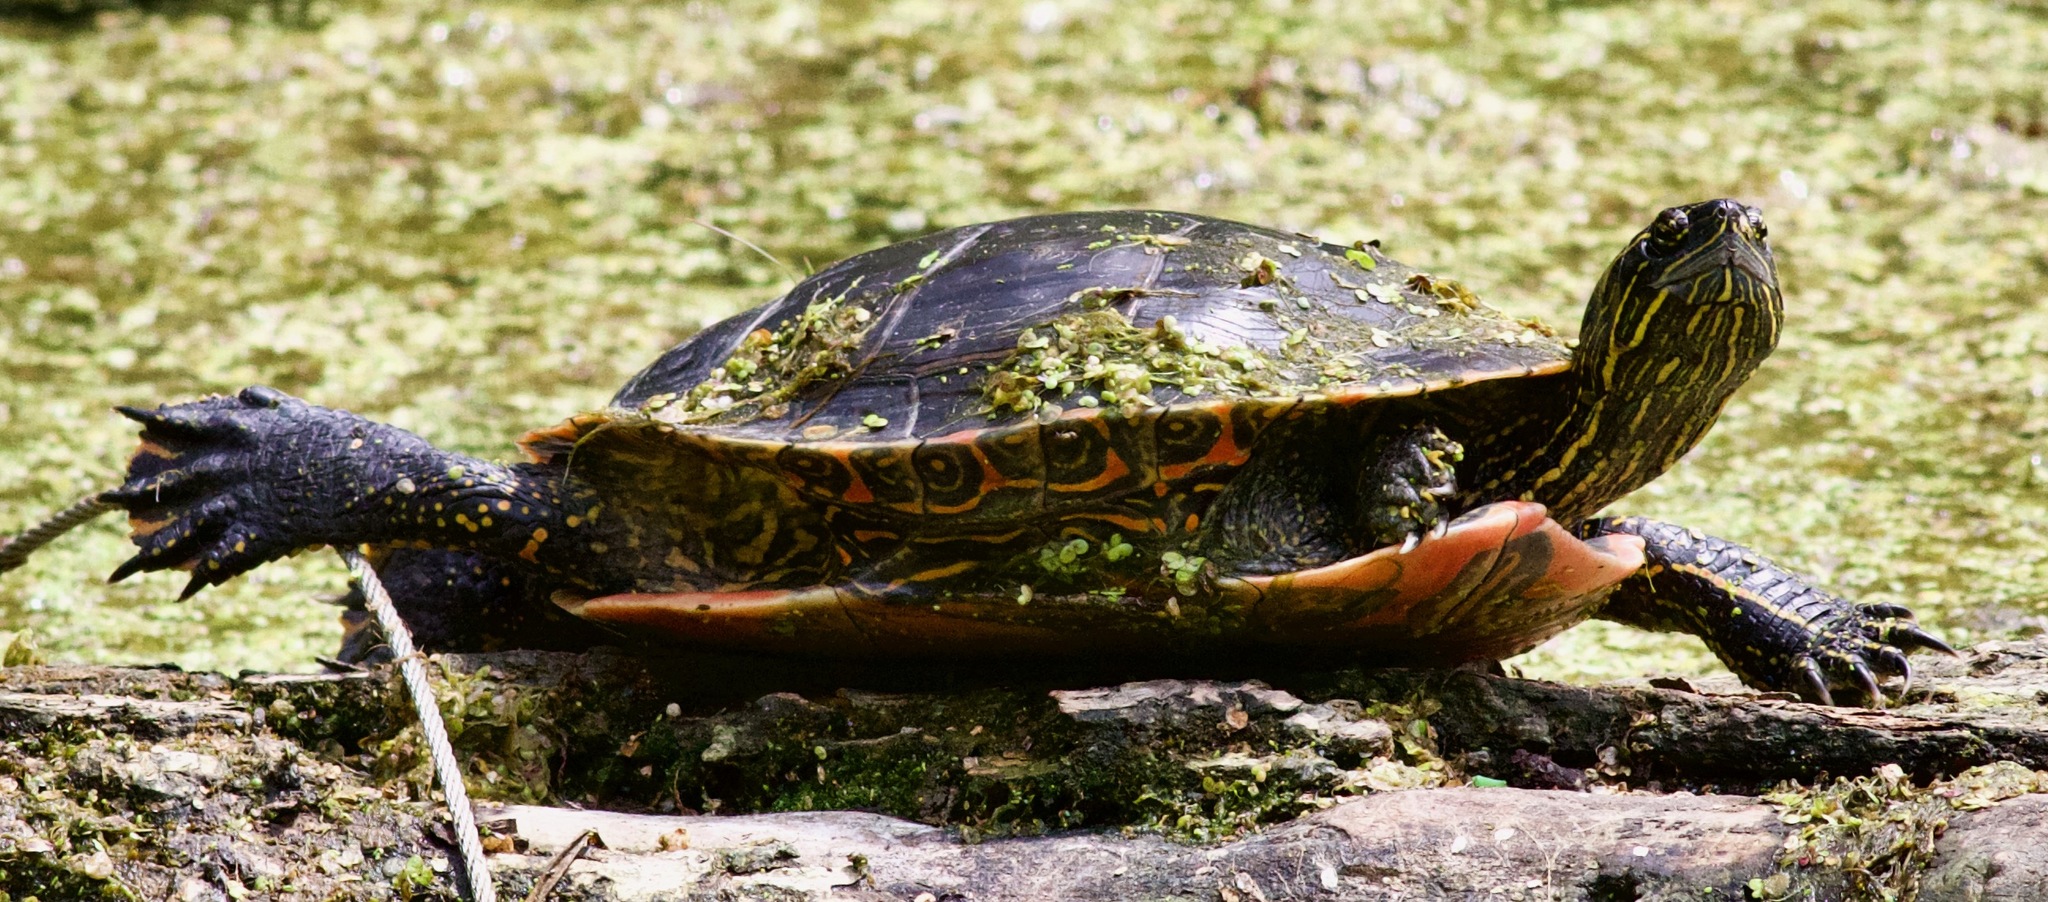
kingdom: Animalia
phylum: Chordata
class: Testudines
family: Emydidae
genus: Chrysemys
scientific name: Chrysemys picta
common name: Painted turtle
